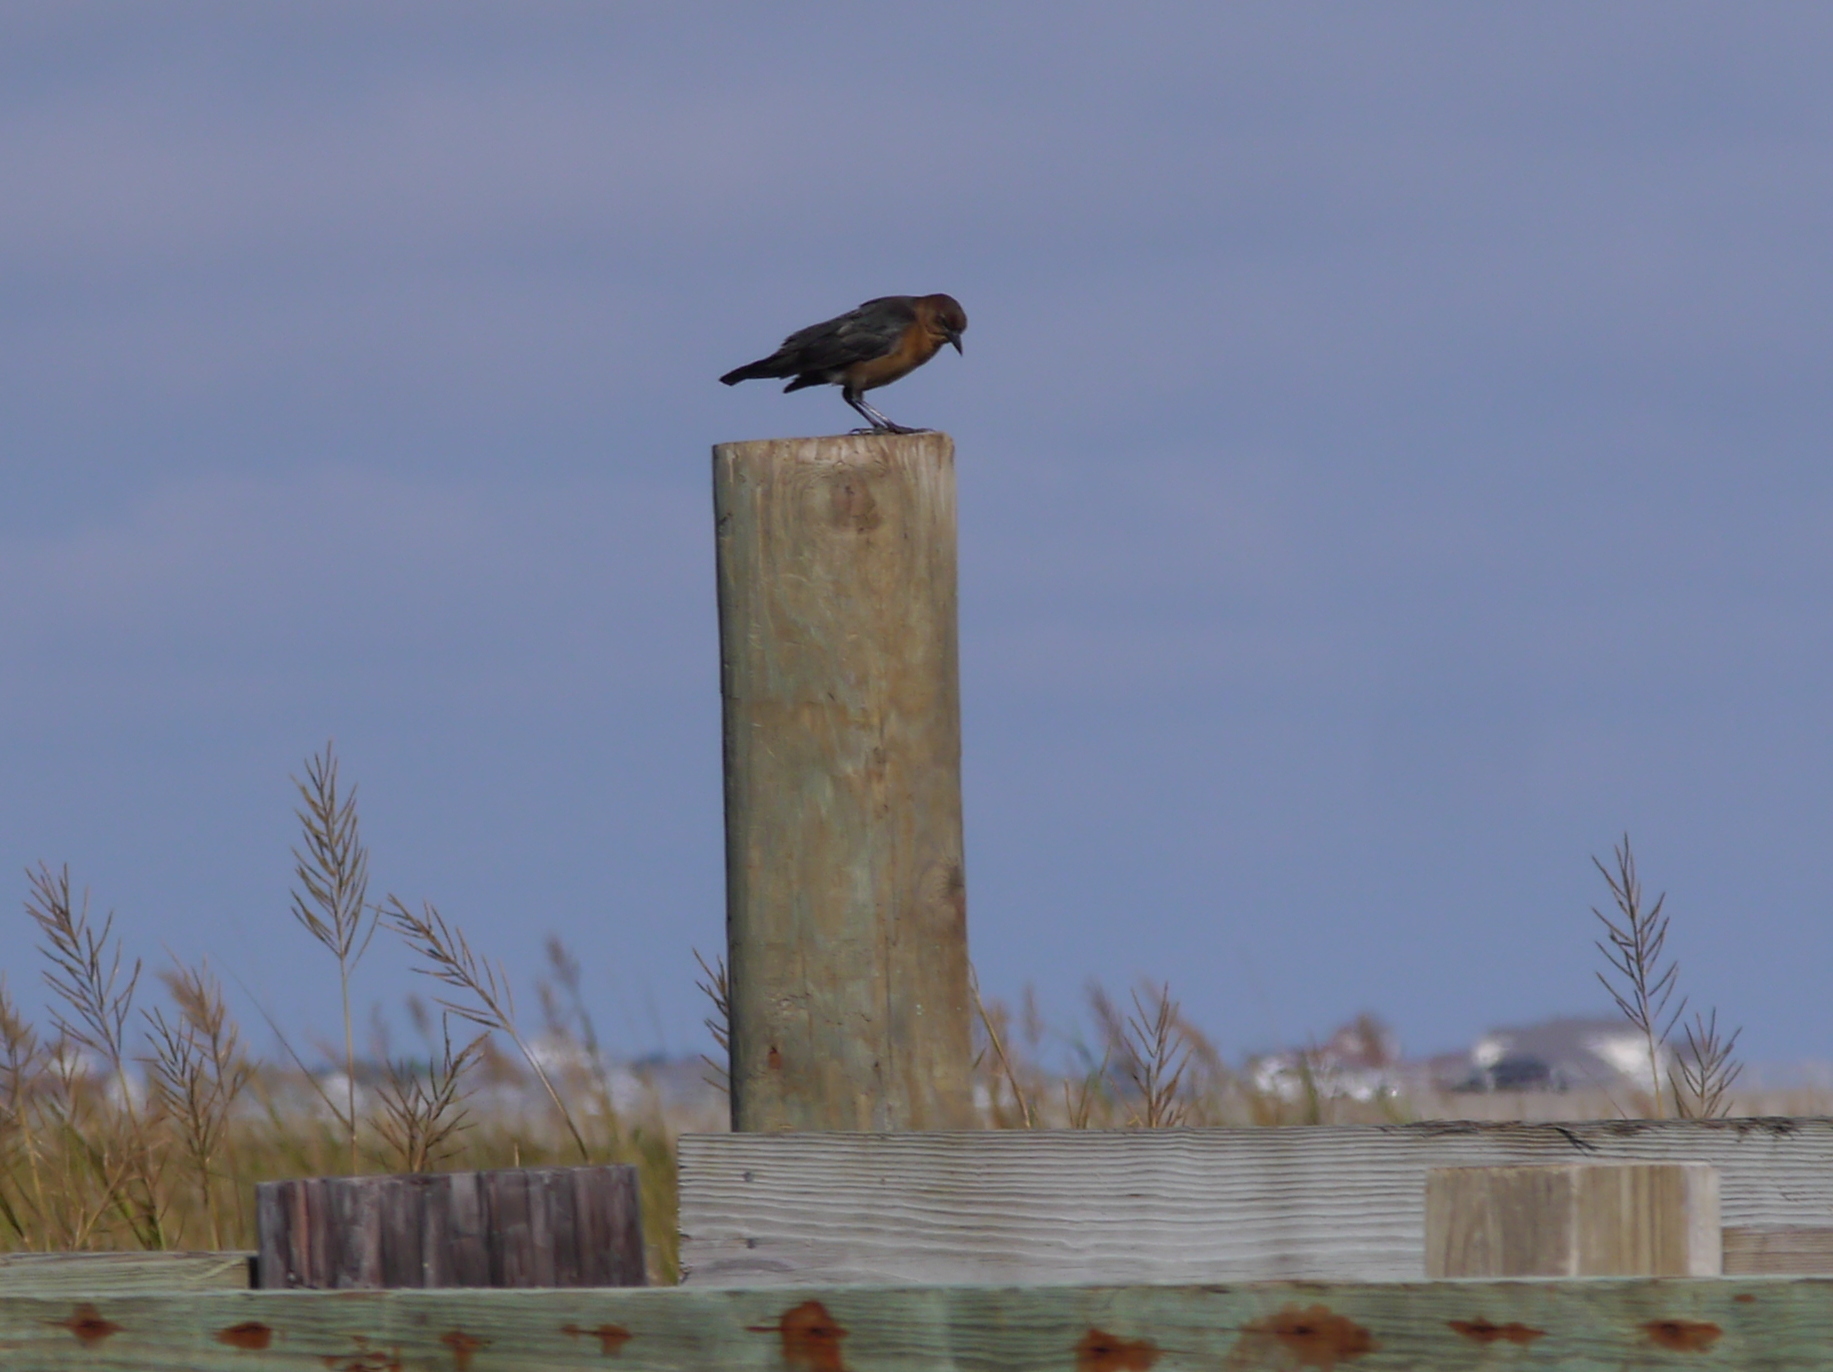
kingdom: Animalia
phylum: Chordata
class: Aves
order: Passeriformes
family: Icteridae
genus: Quiscalus
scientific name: Quiscalus major
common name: Boat-tailed grackle
